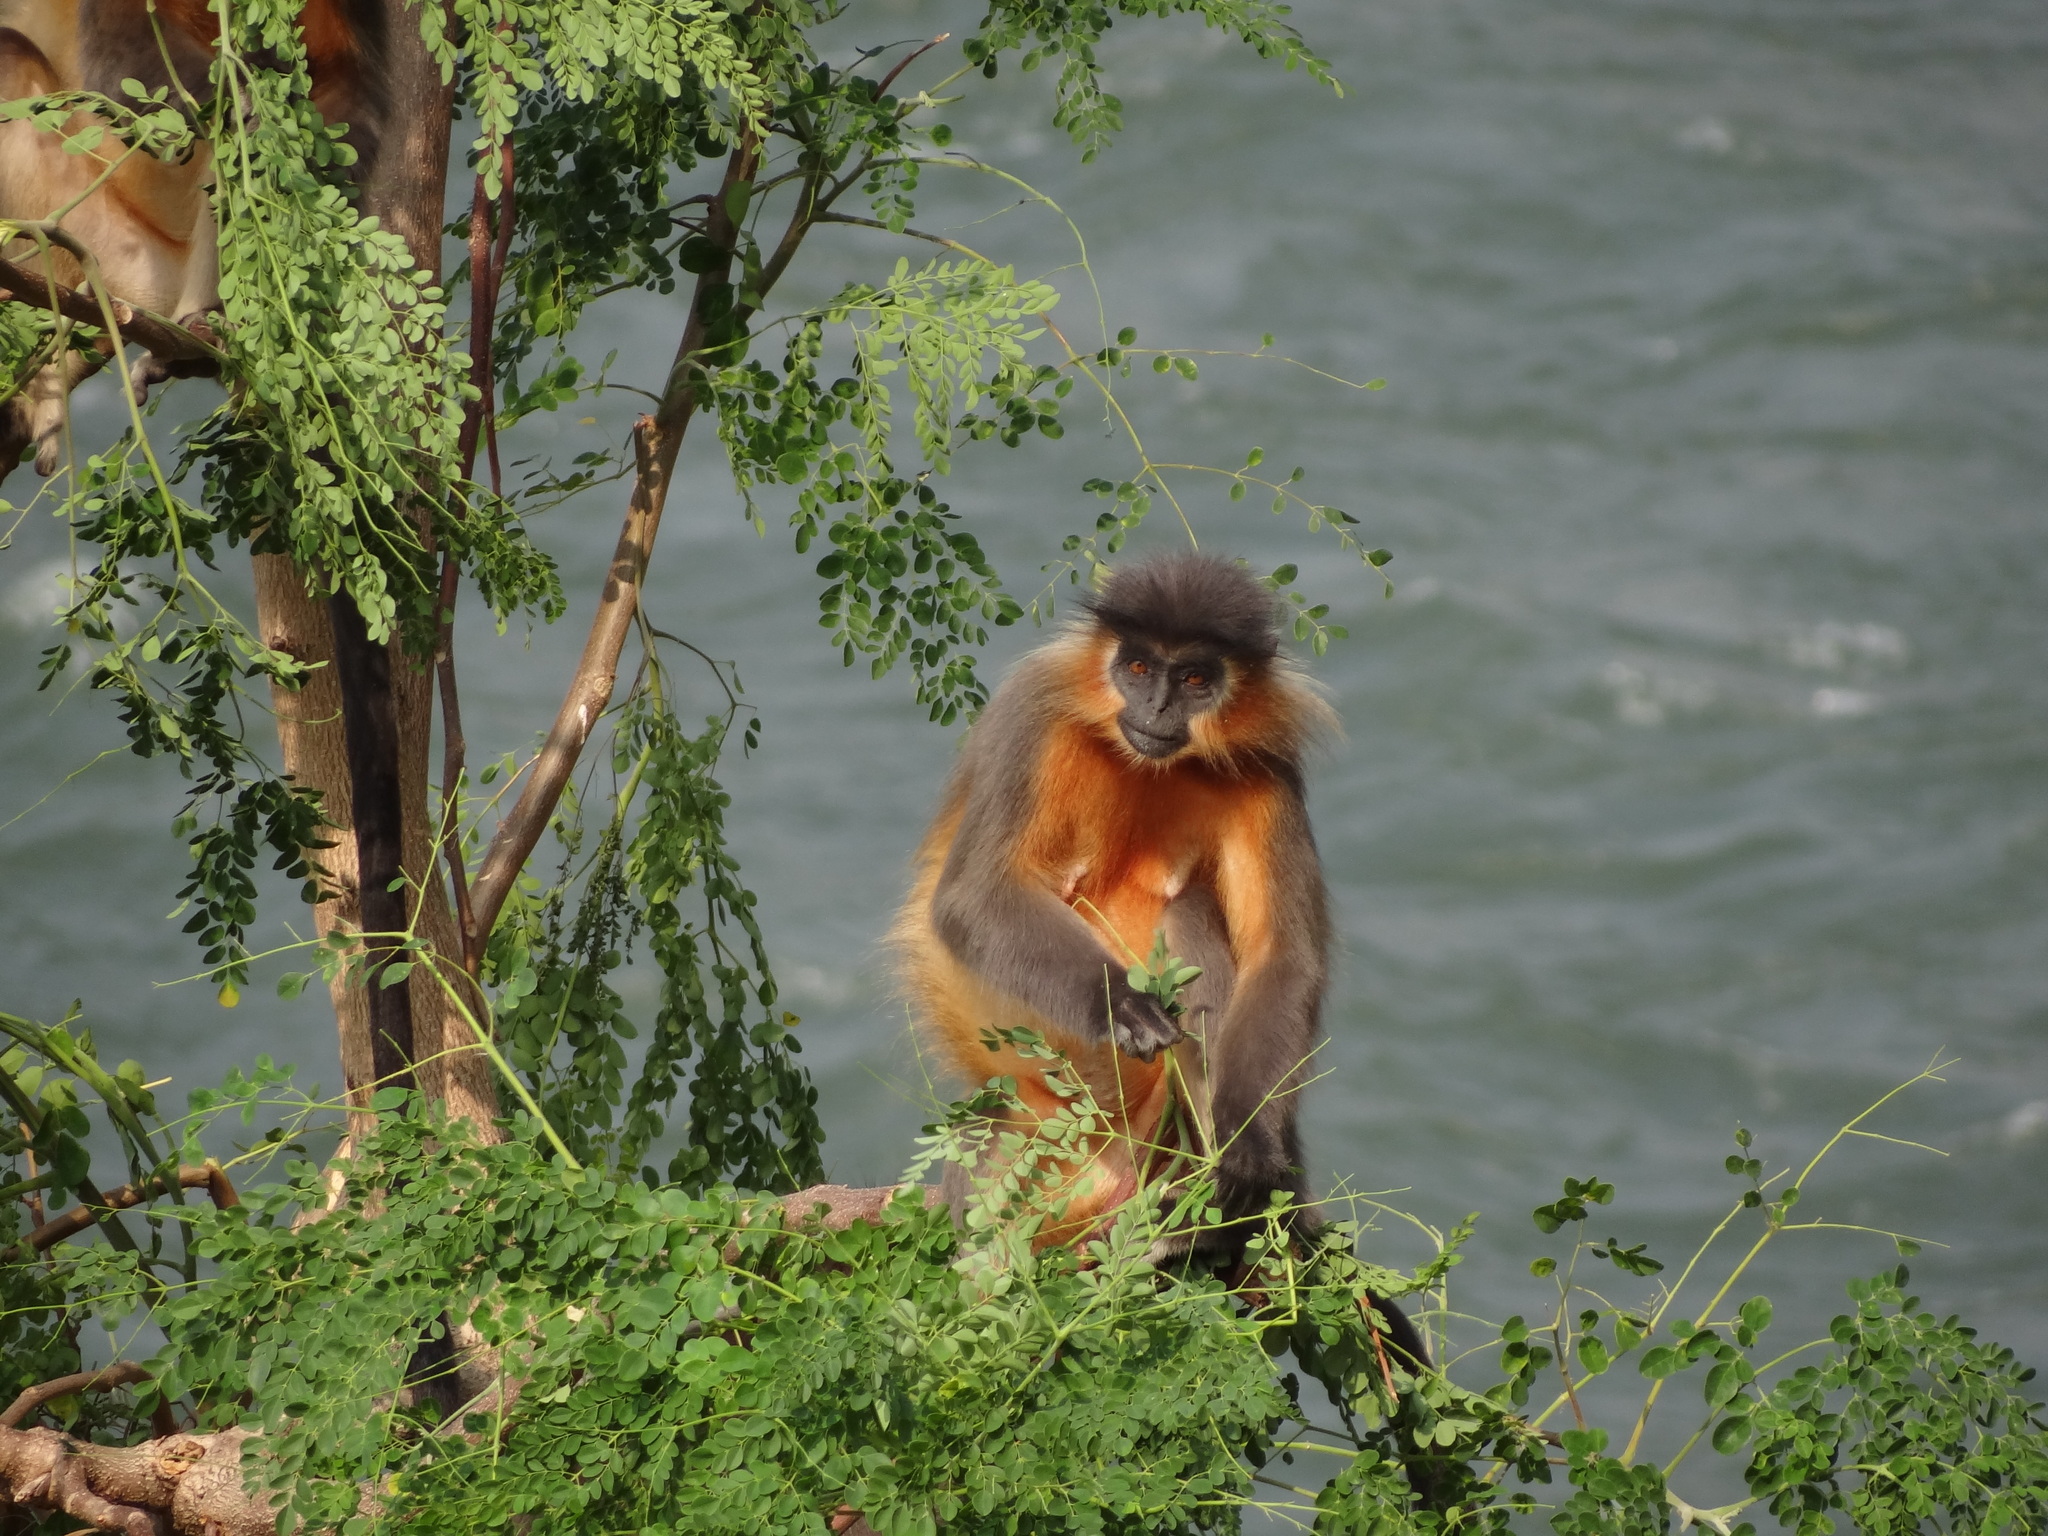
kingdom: Animalia
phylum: Chordata
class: Mammalia
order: Primates
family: Cercopithecidae
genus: Trachypithecus
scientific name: Trachypithecus pileatus
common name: Capped langur
